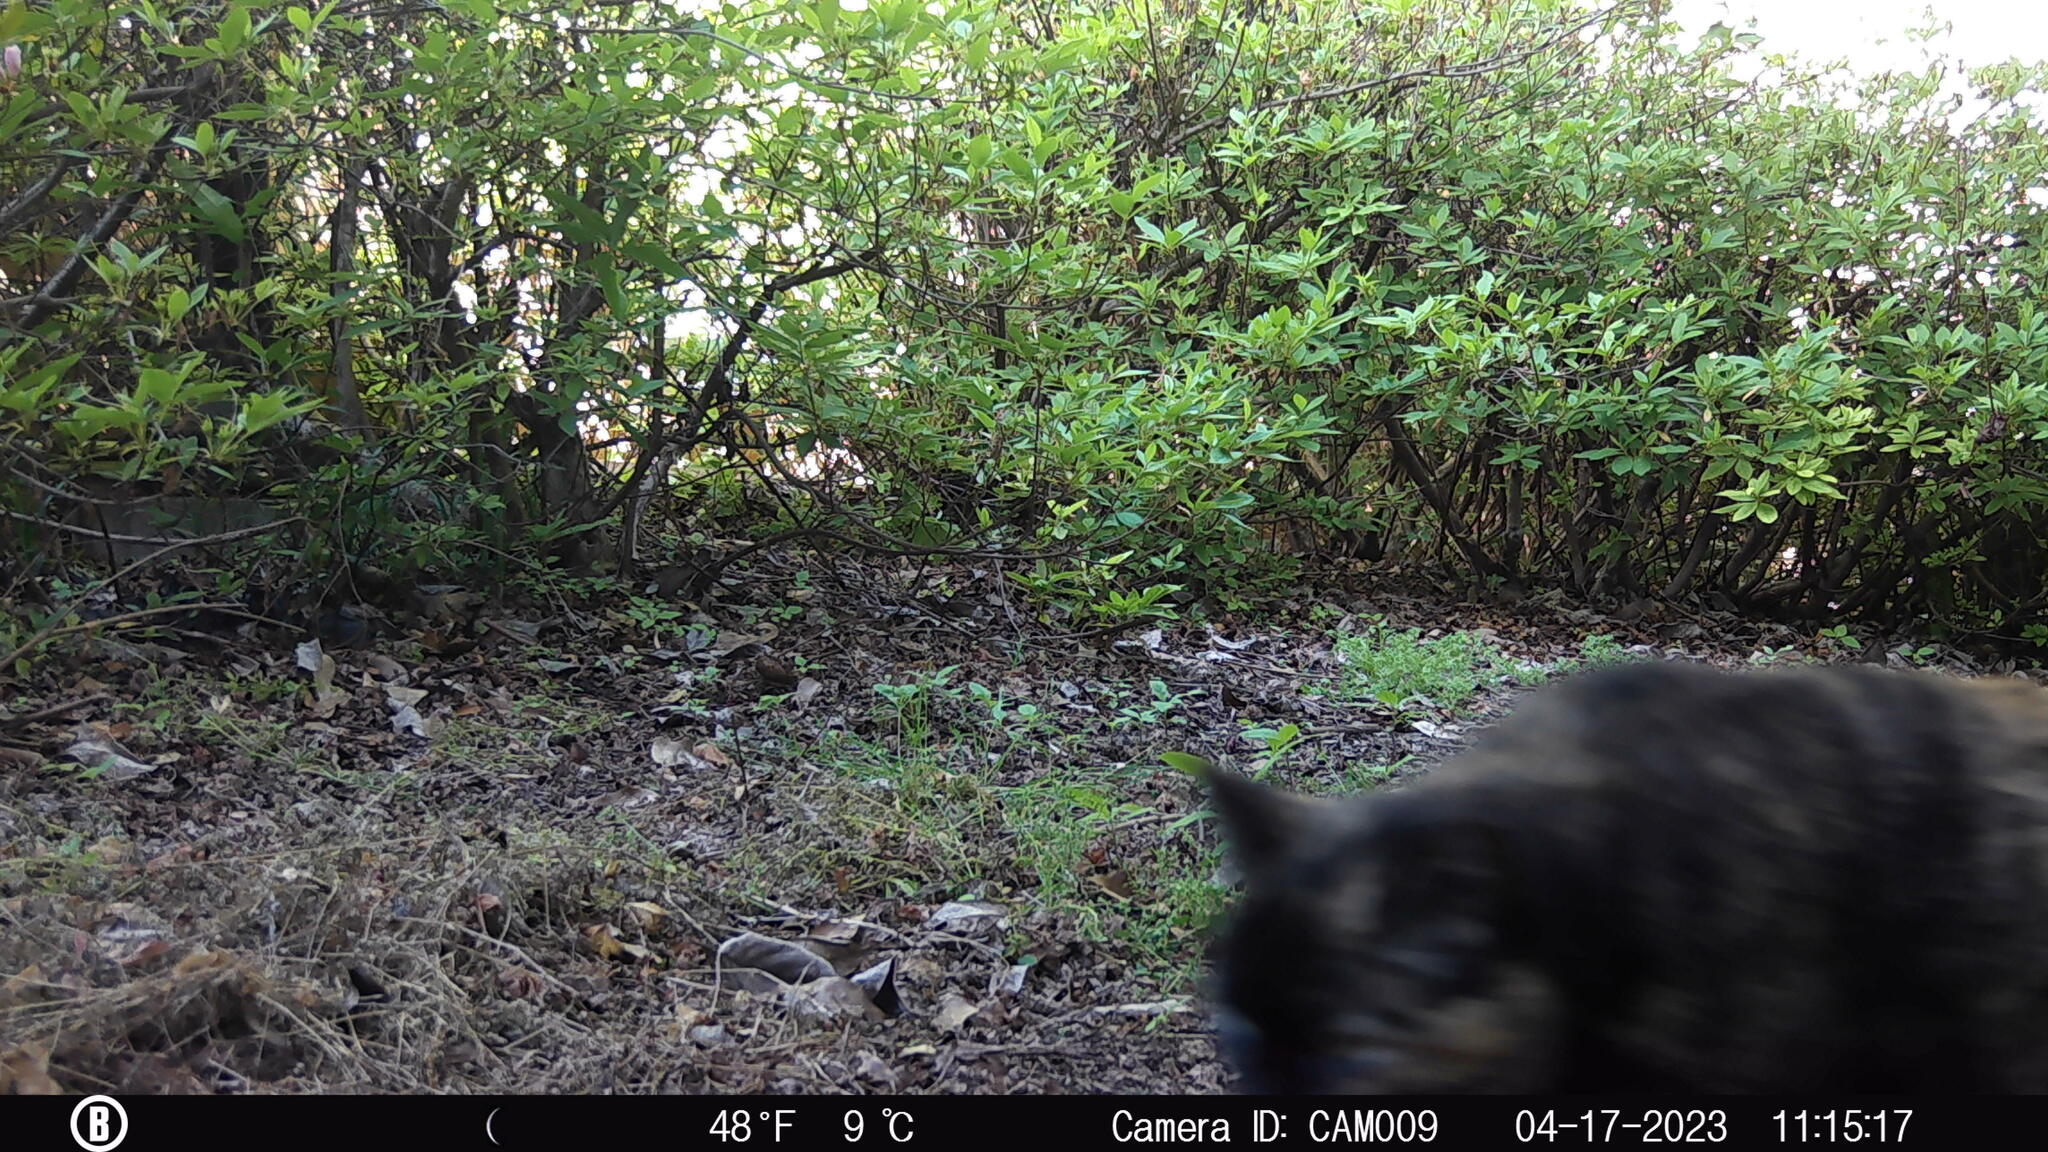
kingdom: Animalia
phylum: Chordata
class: Mammalia
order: Carnivora
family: Felidae
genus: Felis
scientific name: Felis catus
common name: Domestic cat
